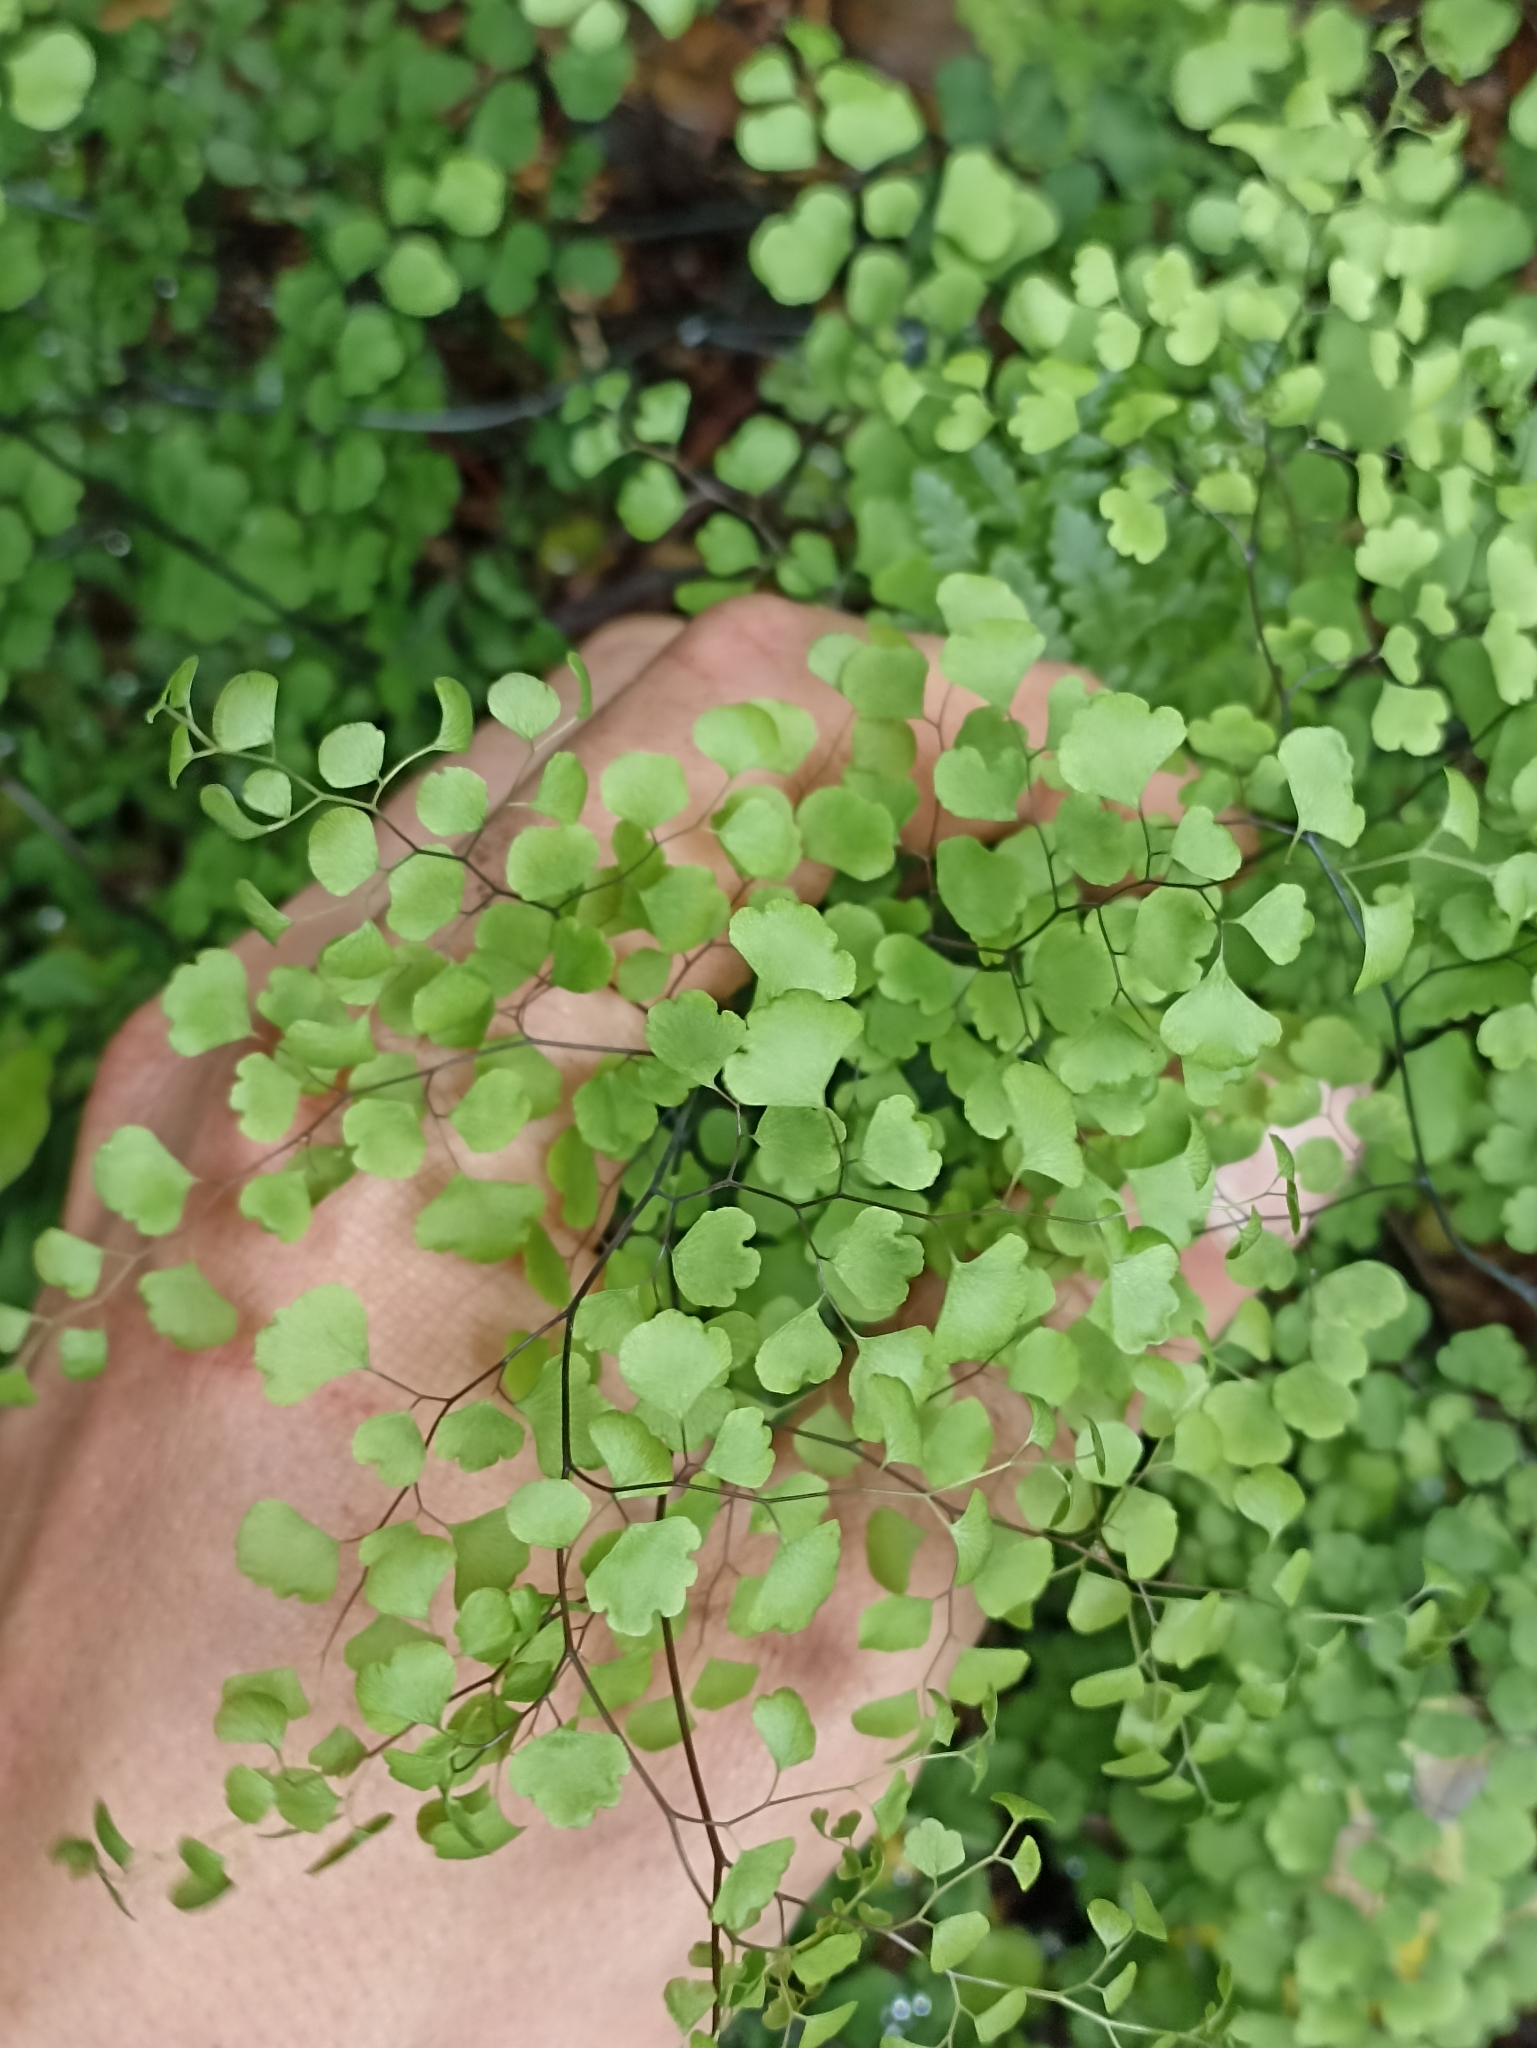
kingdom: Plantae
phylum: Tracheophyta
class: Polypodiopsida
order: Polypodiales
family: Pteridaceae
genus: Adiantum
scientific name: Adiantum aethiopicum
